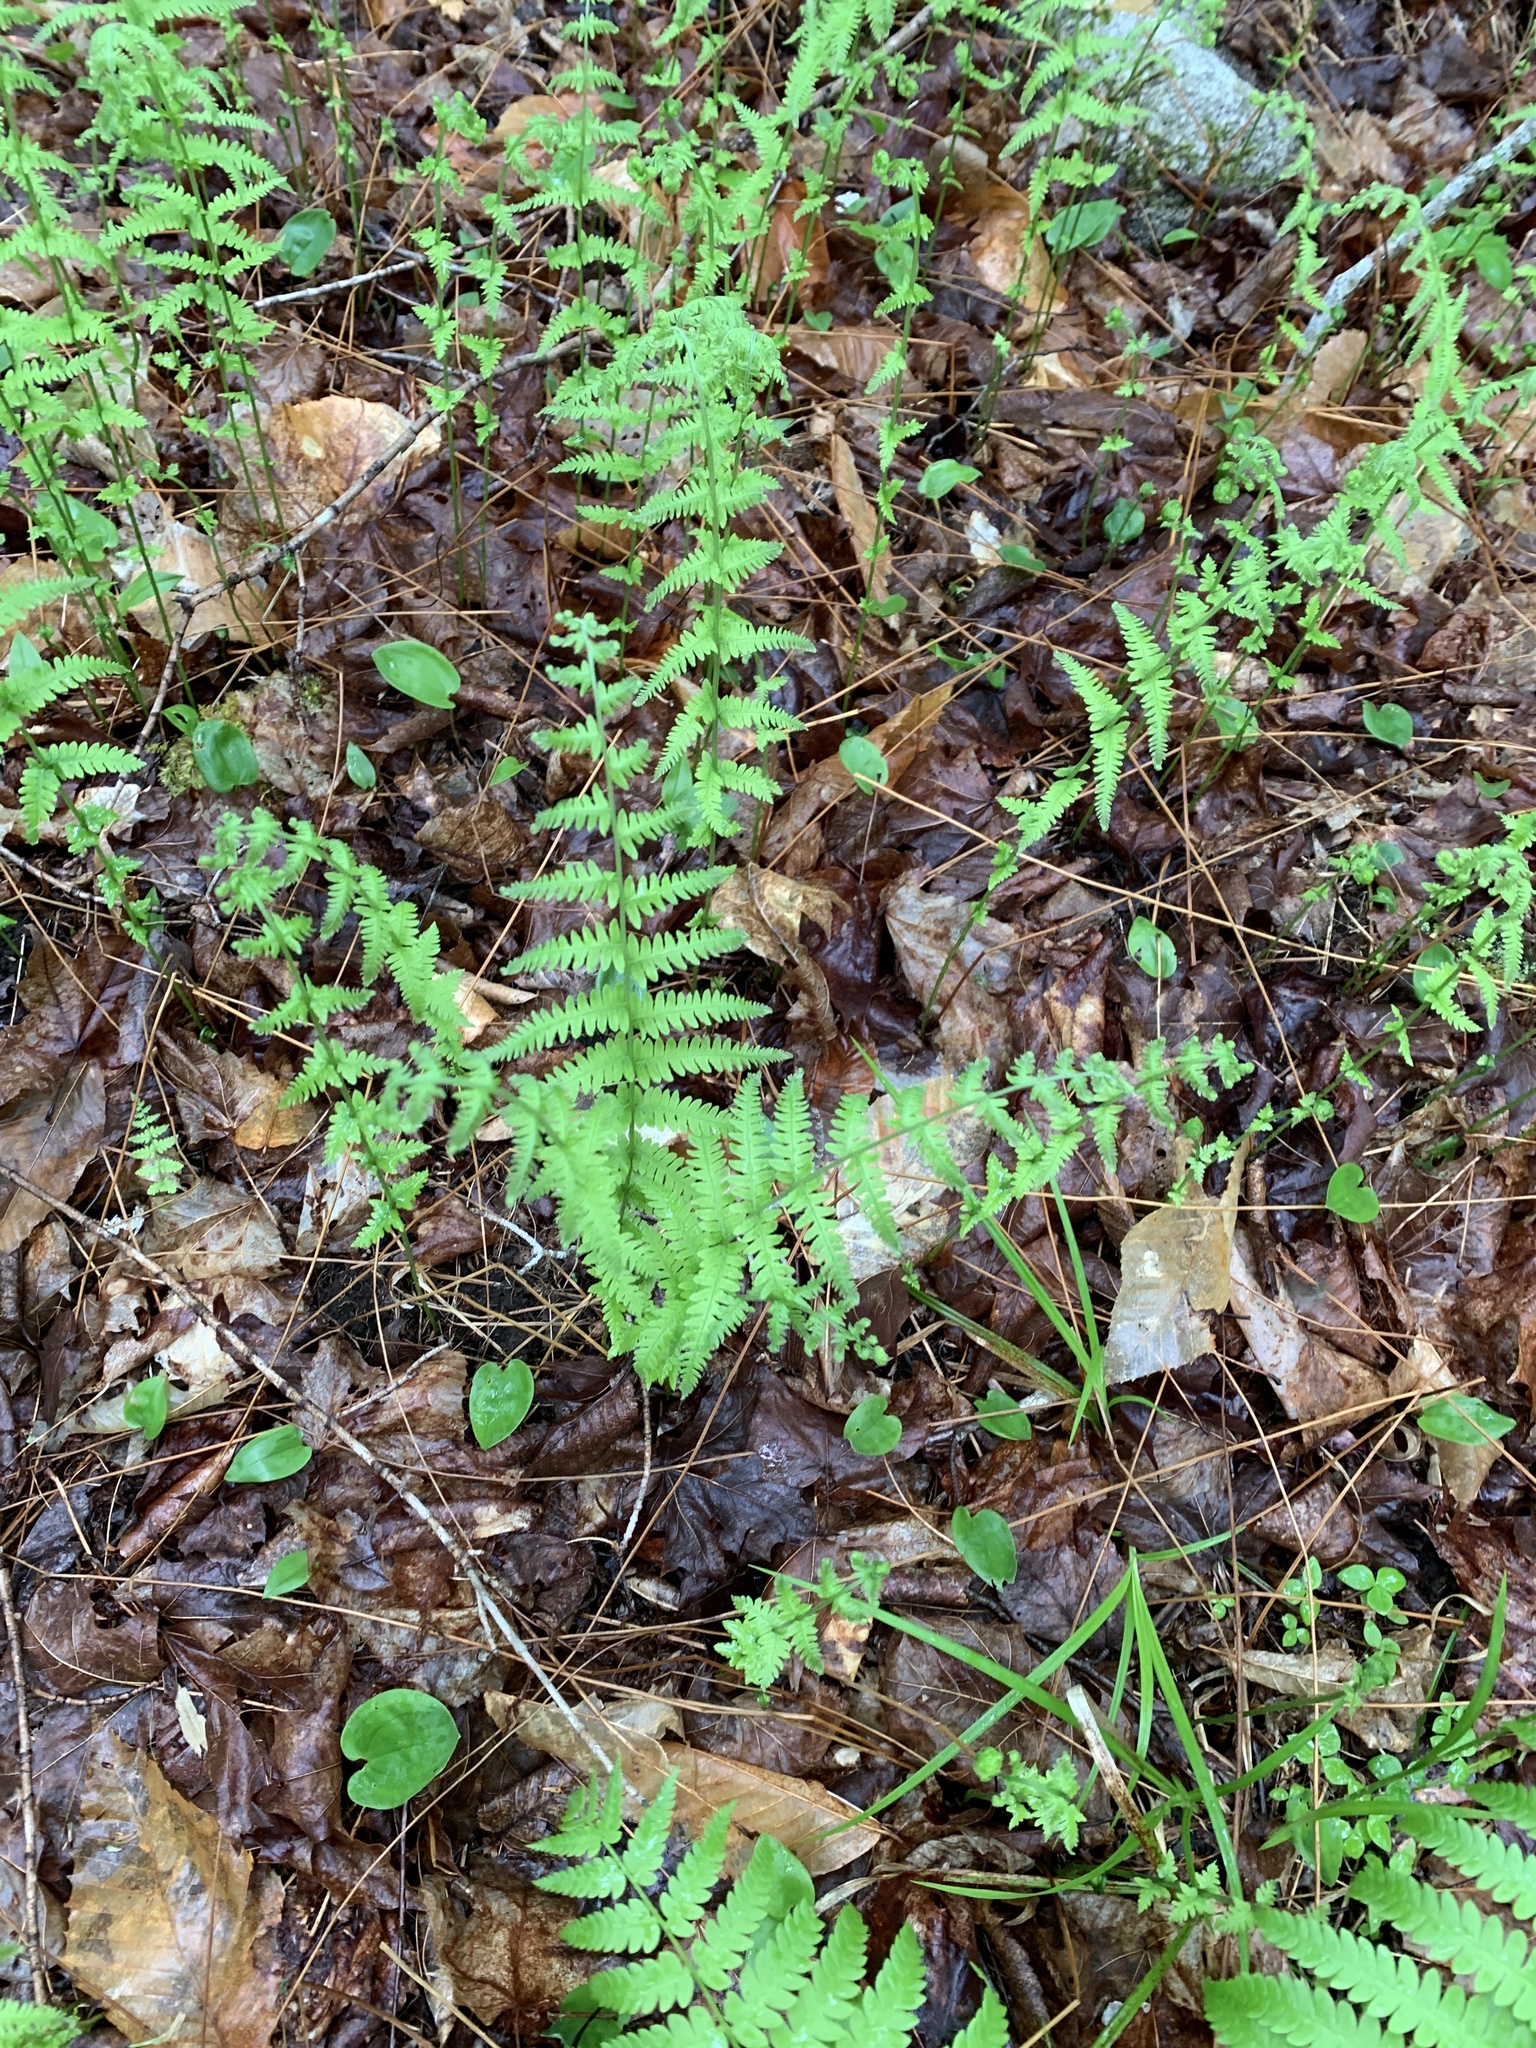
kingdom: Plantae
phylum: Tracheophyta
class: Polypodiopsida
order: Polypodiales
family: Thelypteridaceae
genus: Amauropelta
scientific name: Amauropelta noveboracensis
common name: New york fern
